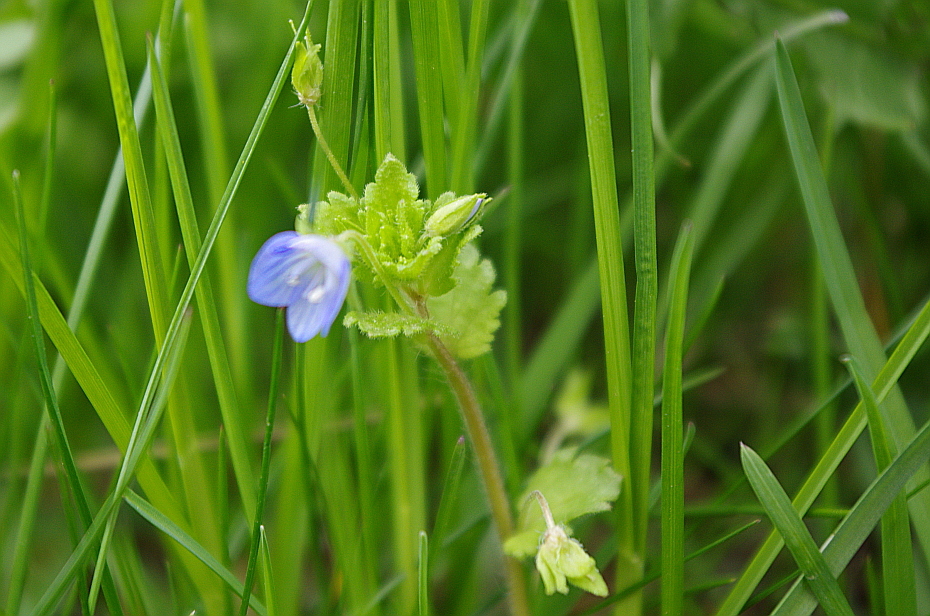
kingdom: Plantae
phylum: Tracheophyta
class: Magnoliopsida
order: Lamiales
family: Plantaginaceae
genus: Veronica
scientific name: Veronica persica
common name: Common field-speedwell
